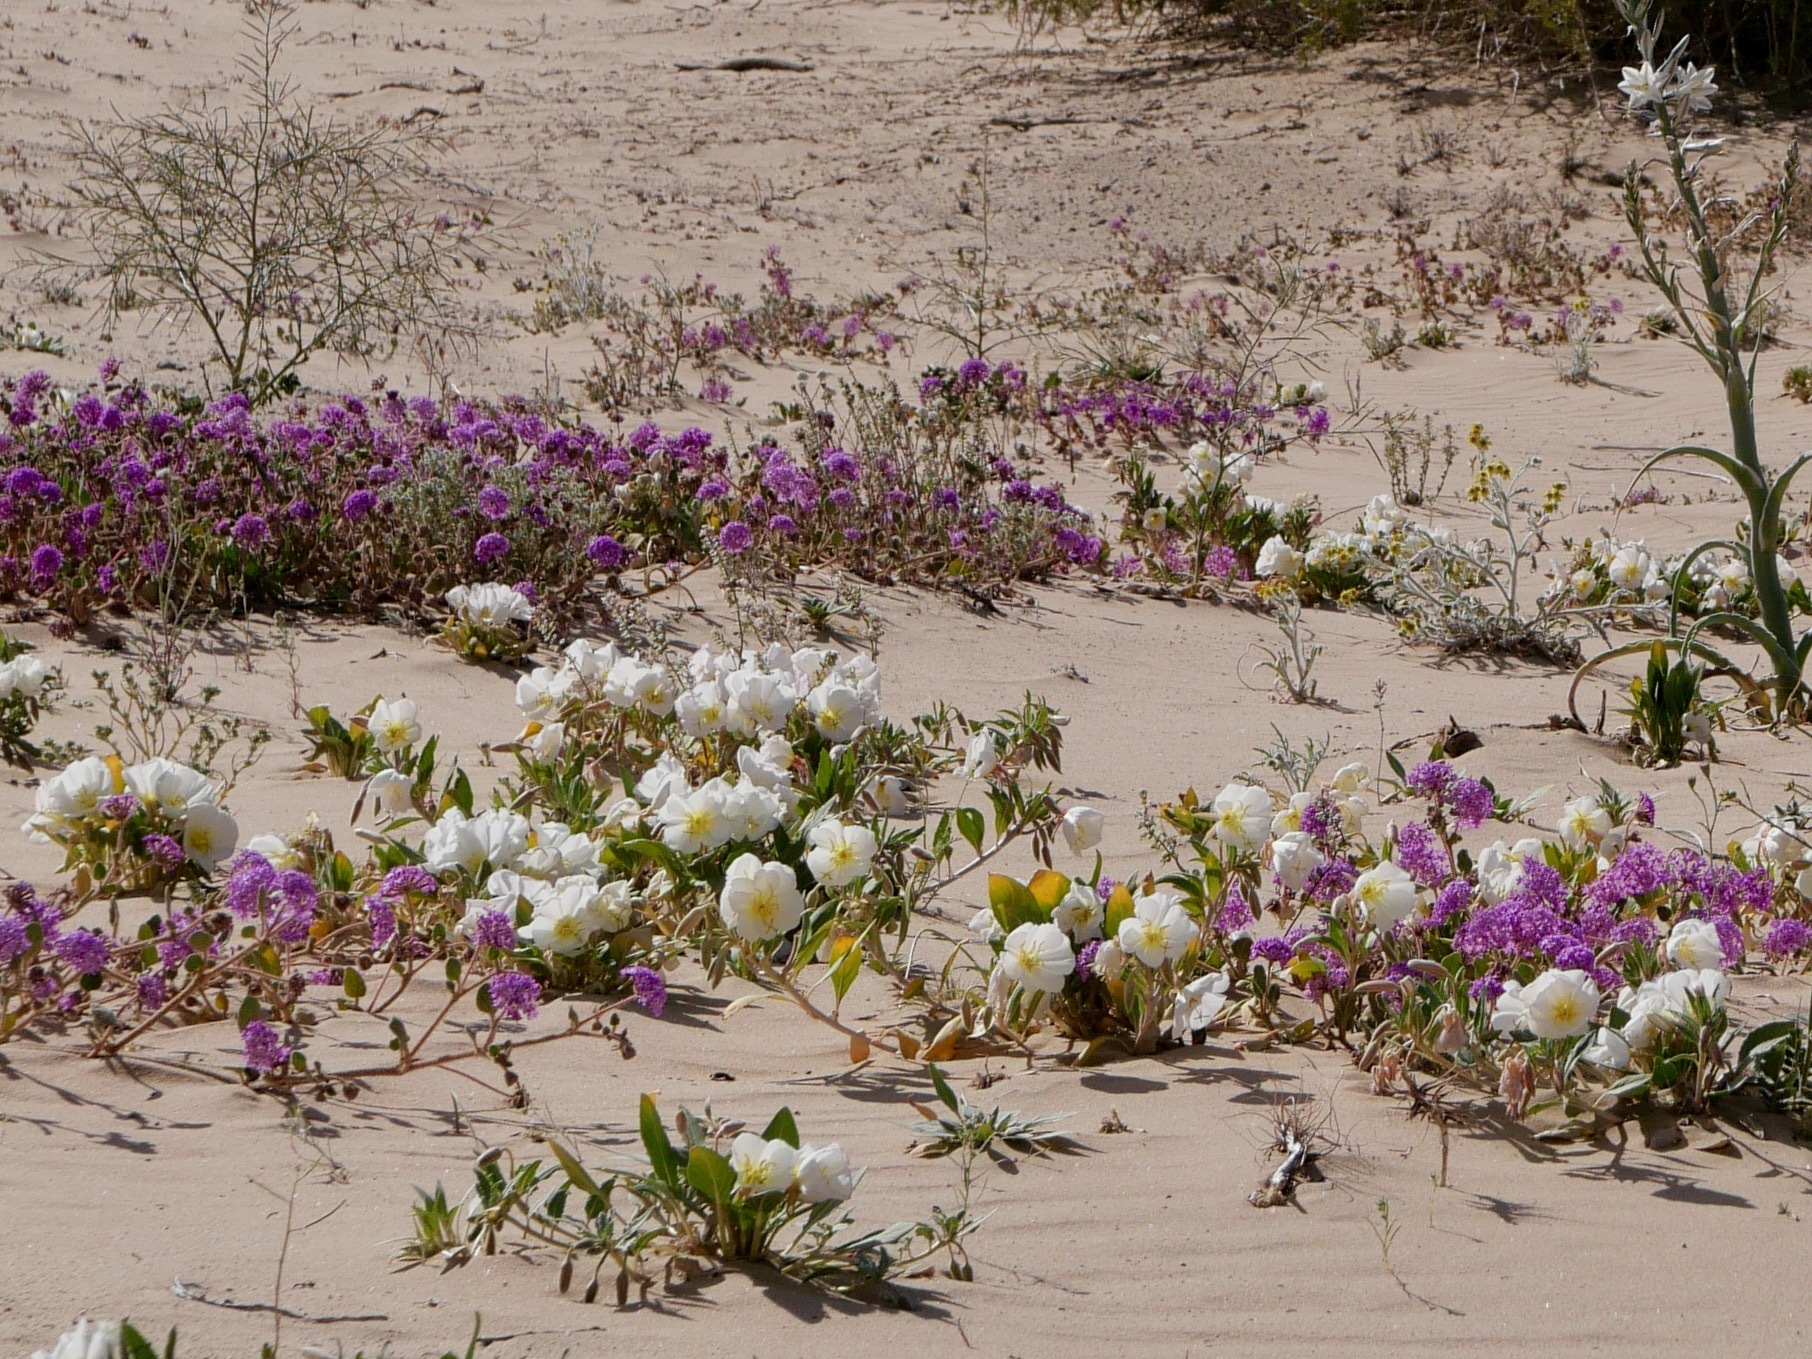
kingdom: Plantae
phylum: Tracheophyta
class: Magnoliopsida
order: Myrtales
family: Onagraceae
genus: Oenothera
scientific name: Oenothera deltoides
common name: Basket evening-primrose
